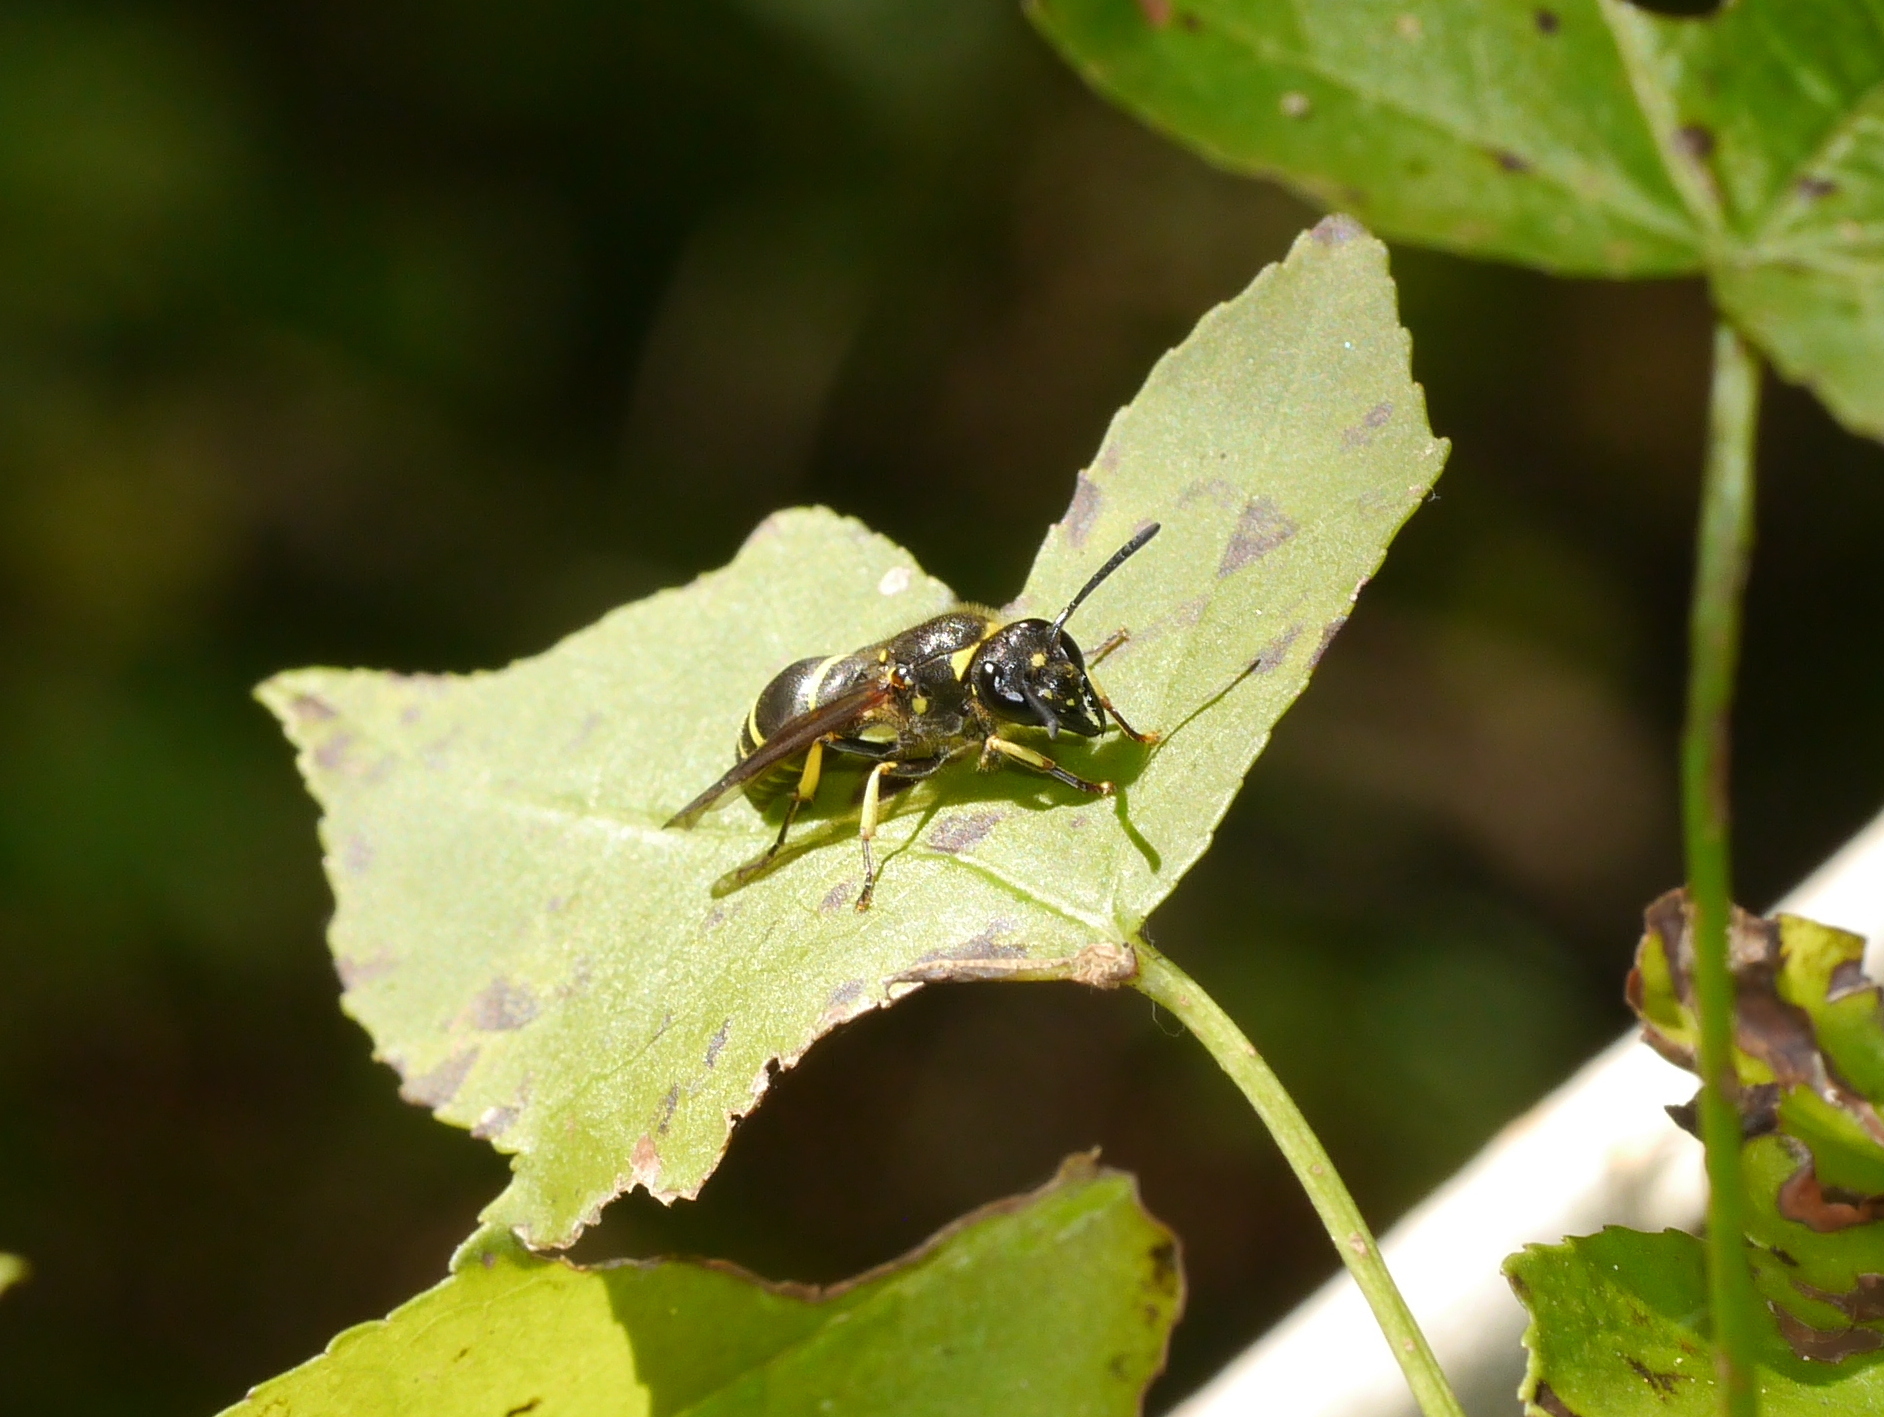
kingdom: Animalia
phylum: Arthropoda
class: Insecta
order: Hymenoptera
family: Vespidae
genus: Ancistrocerus
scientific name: Ancistrocerus
